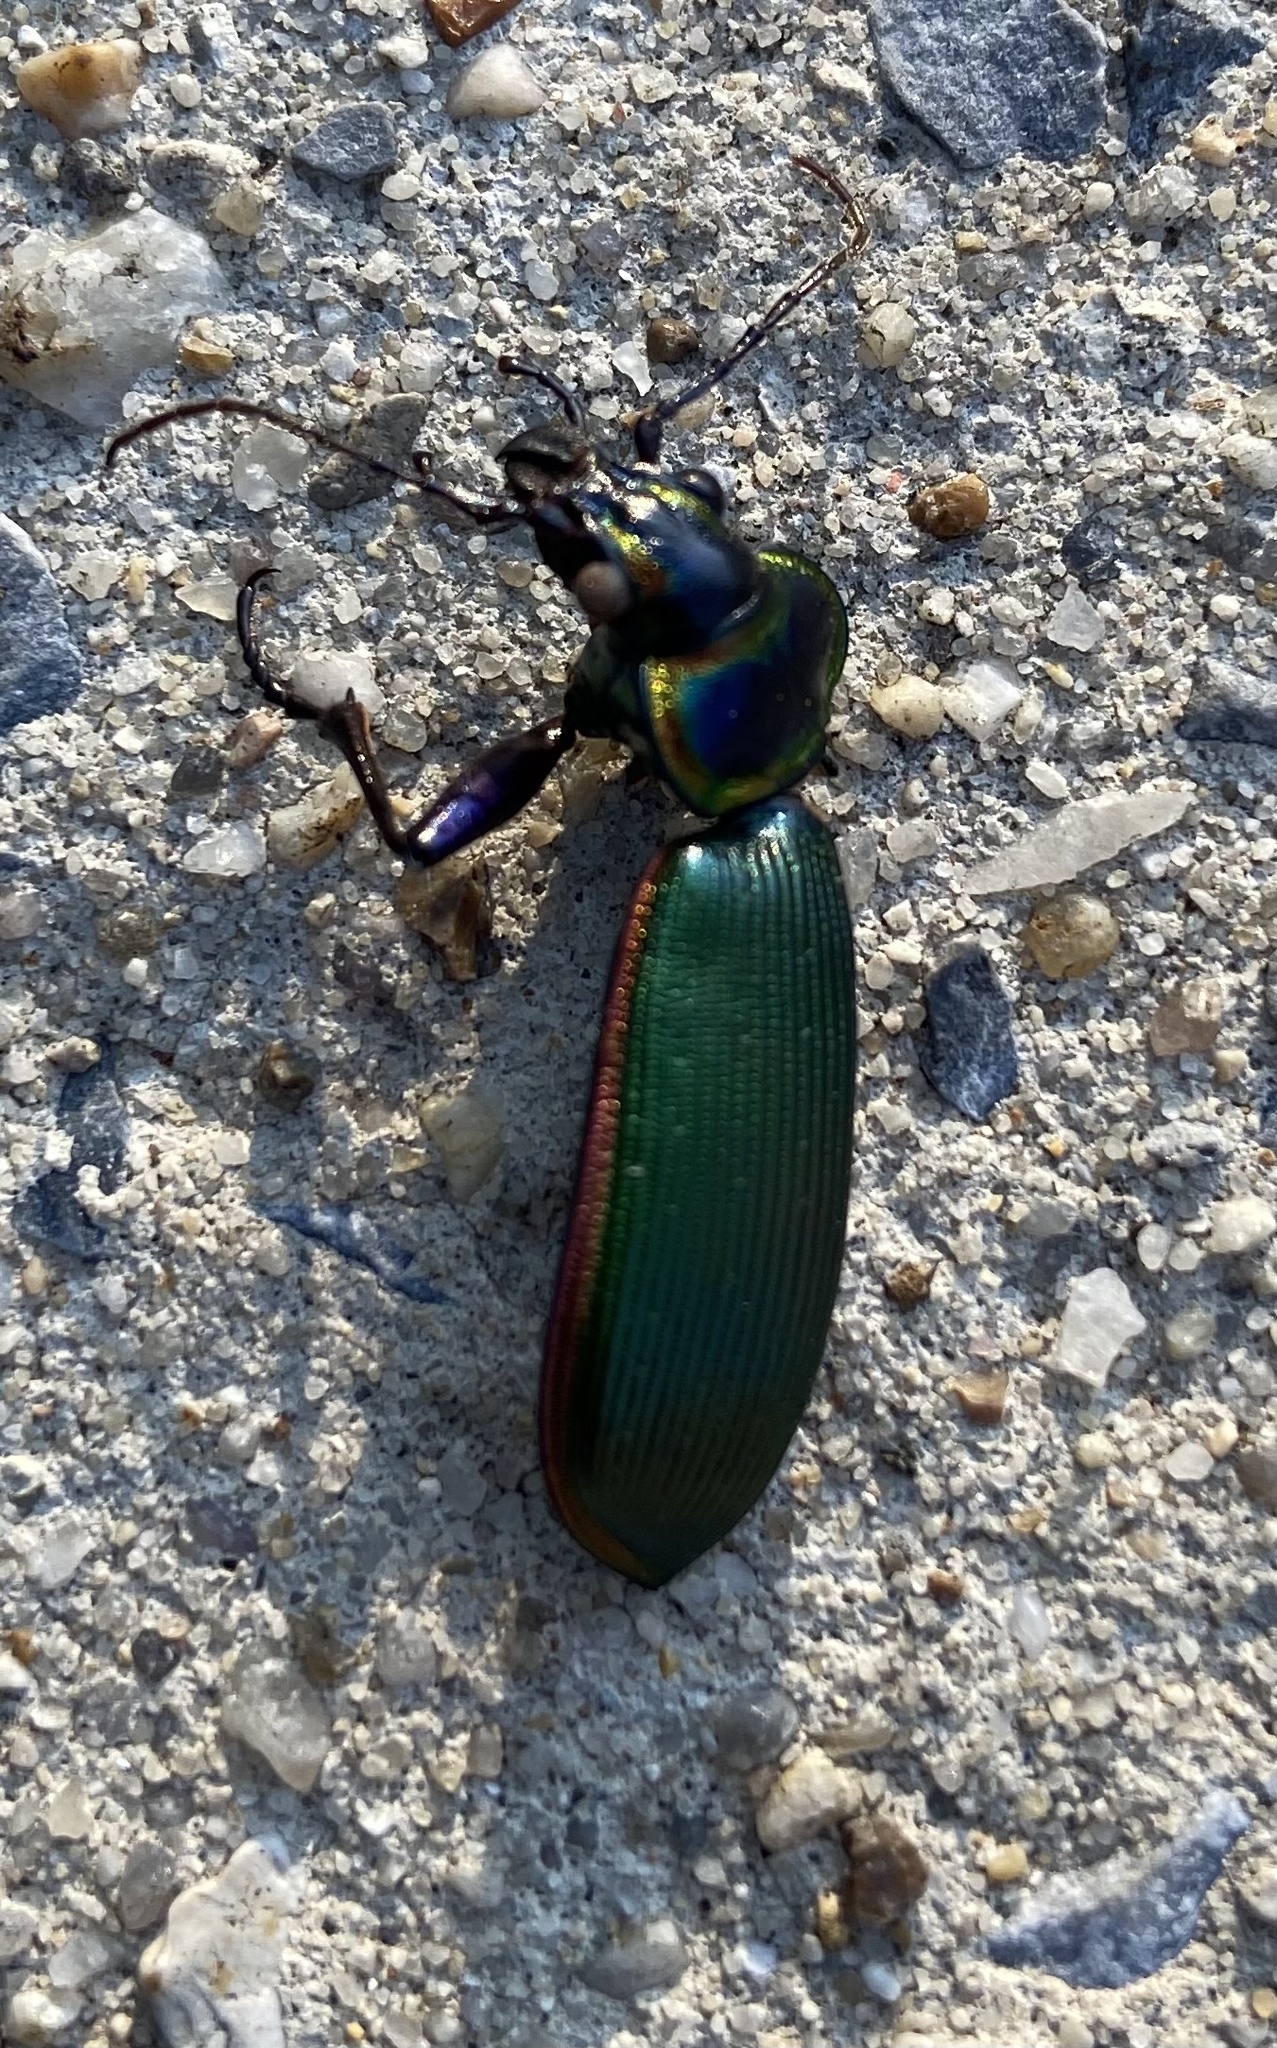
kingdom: Animalia
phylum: Arthropoda
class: Insecta
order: Coleoptera
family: Carabidae
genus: Calosoma
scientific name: Calosoma scrutator
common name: Fiery searcher beetle
